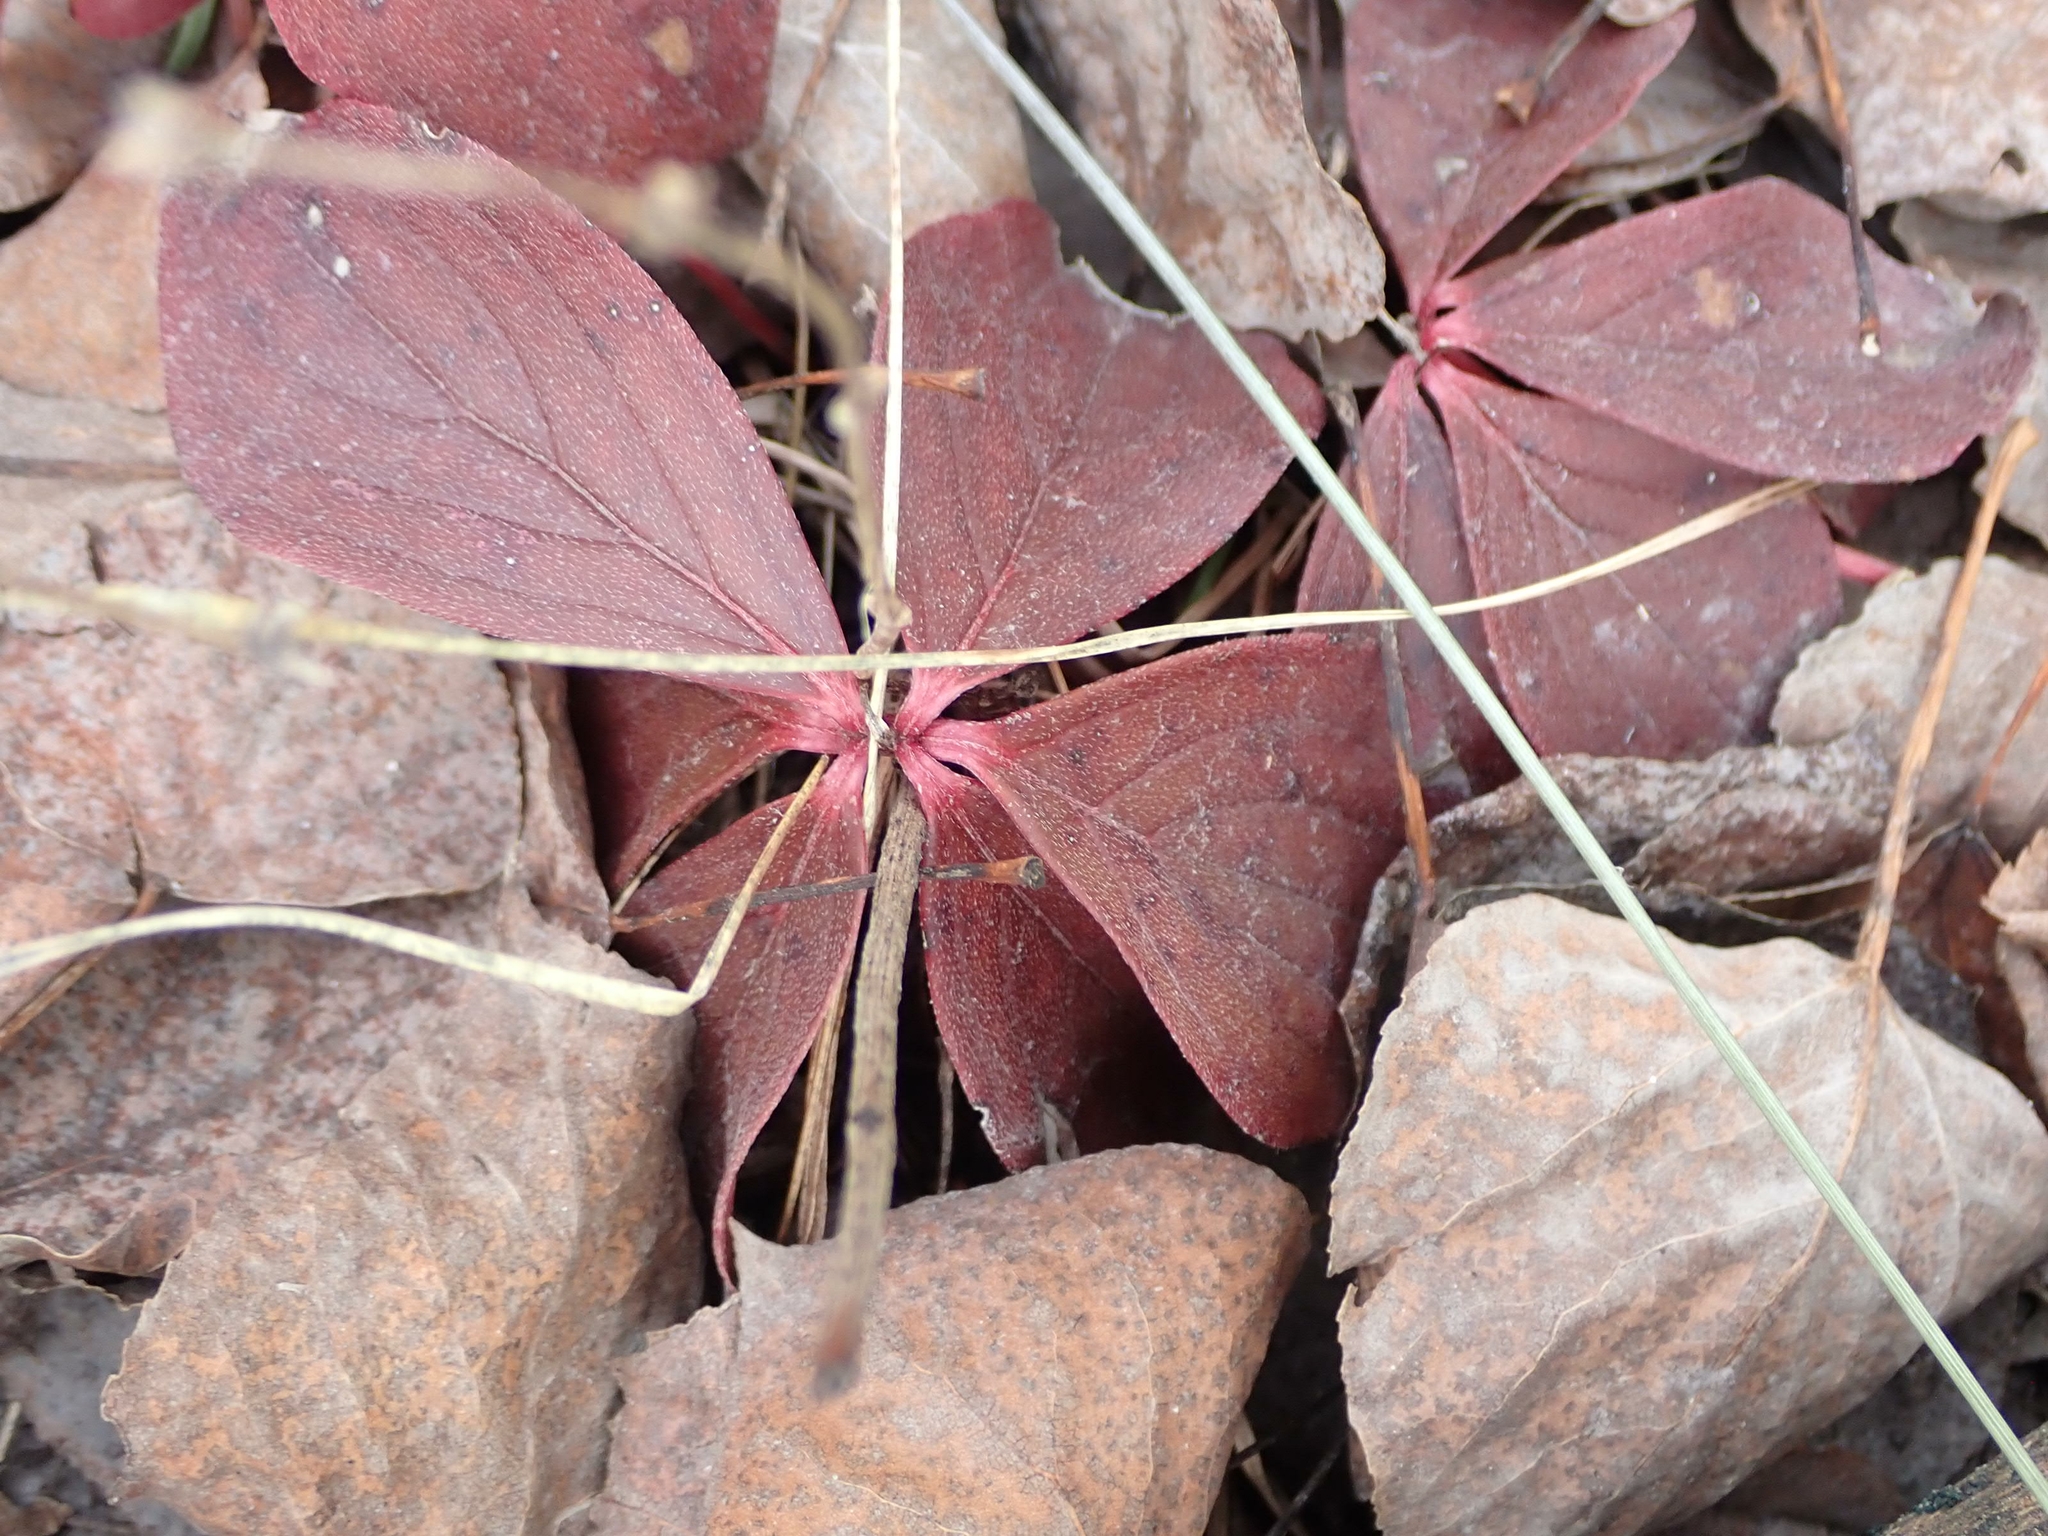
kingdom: Plantae
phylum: Tracheophyta
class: Magnoliopsida
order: Cornales
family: Cornaceae
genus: Cornus
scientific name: Cornus canadensis
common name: Creeping dogwood
